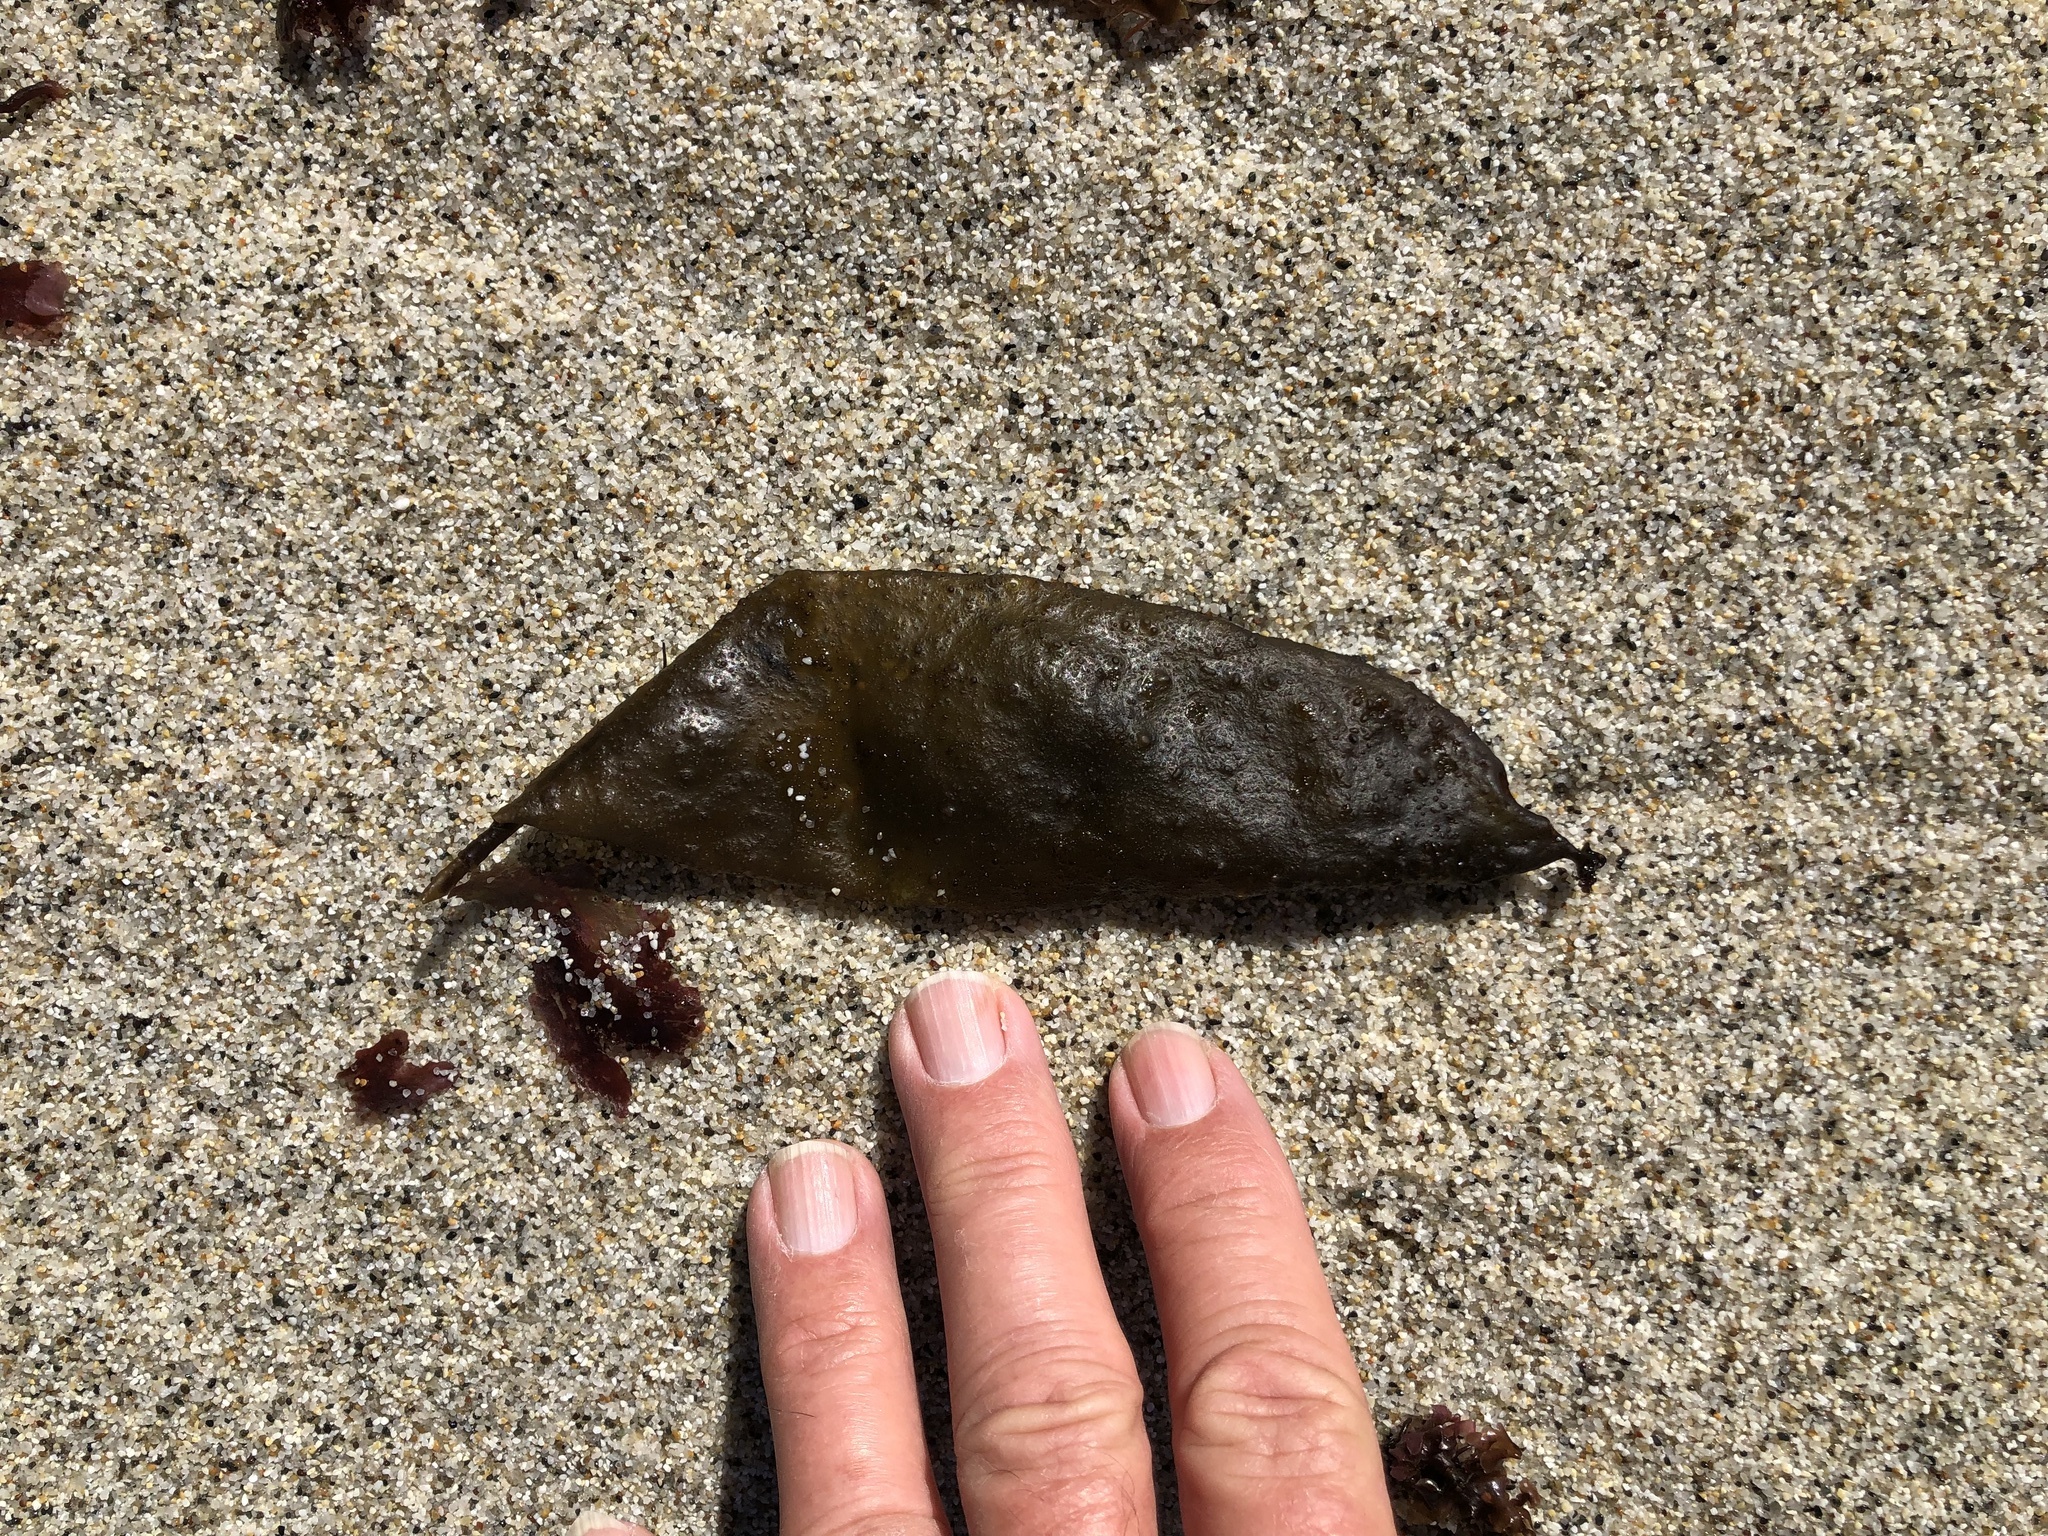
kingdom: Plantae
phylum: Rhodophyta
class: Florideophyceae
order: Palmariales
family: Palmariaceae
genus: Halosaccion
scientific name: Halosaccion glandiforme
